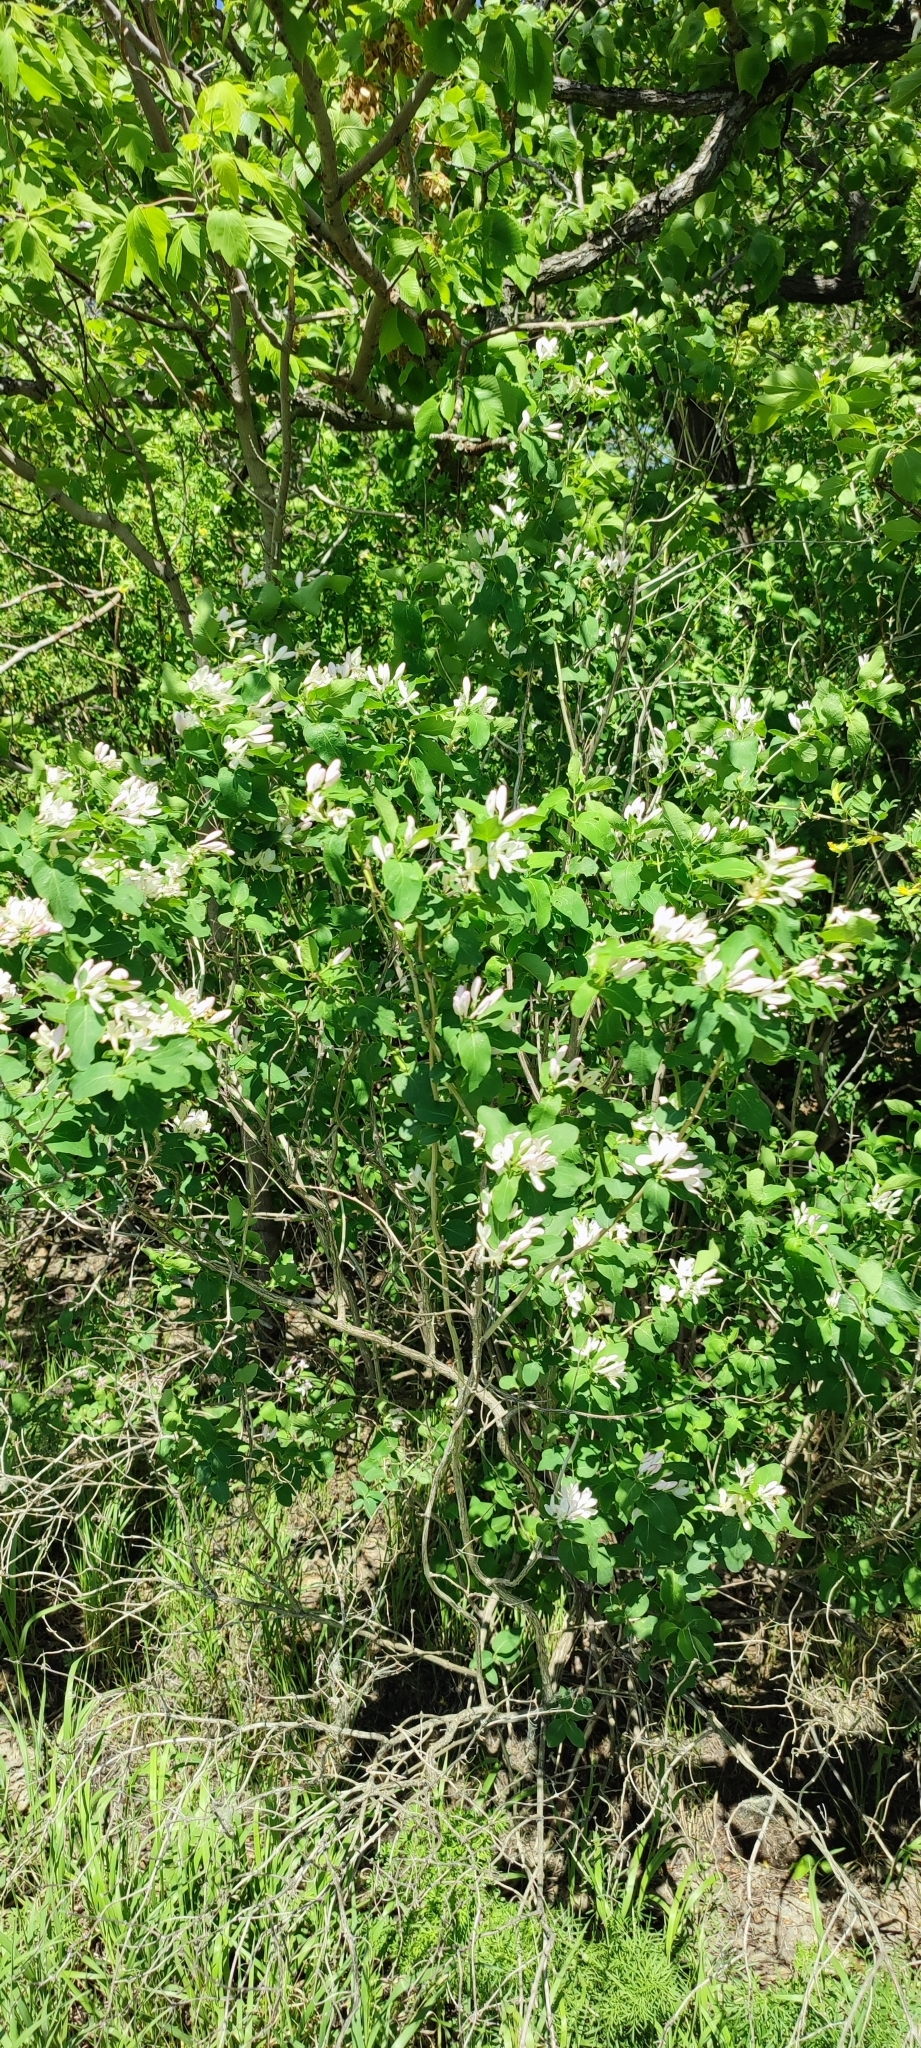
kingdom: Plantae
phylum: Tracheophyta
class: Magnoliopsida
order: Dipsacales
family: Caprifoliaceae
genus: Lonicera
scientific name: Lonicera tatarica
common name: Tatarian honeysuckle
